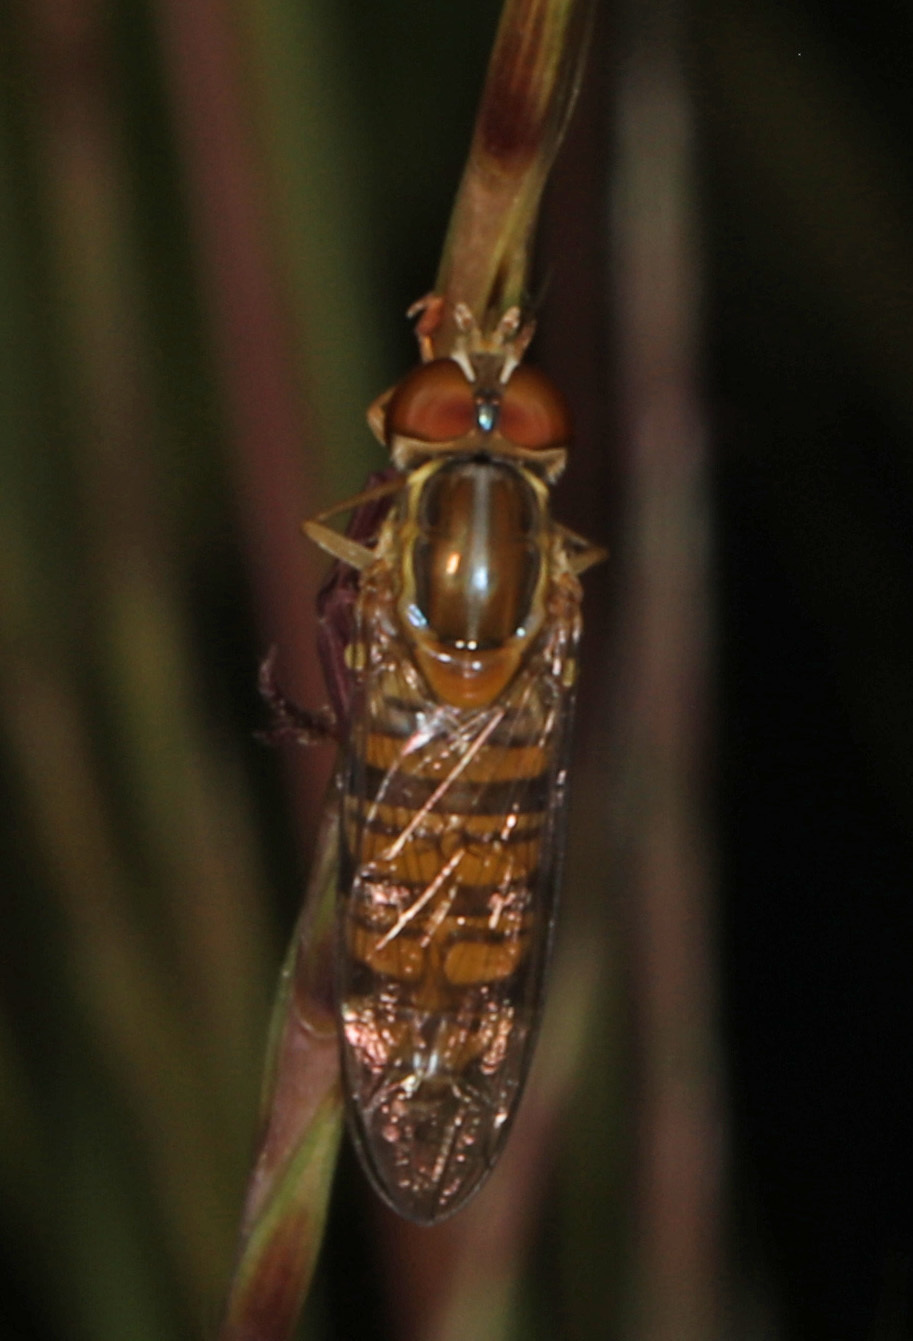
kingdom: Animalia
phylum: Arthropoda
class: Insecta
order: Diptera
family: Syrphidae
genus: Toxomerus
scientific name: Toxomerus politus
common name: Maize calligrapher
